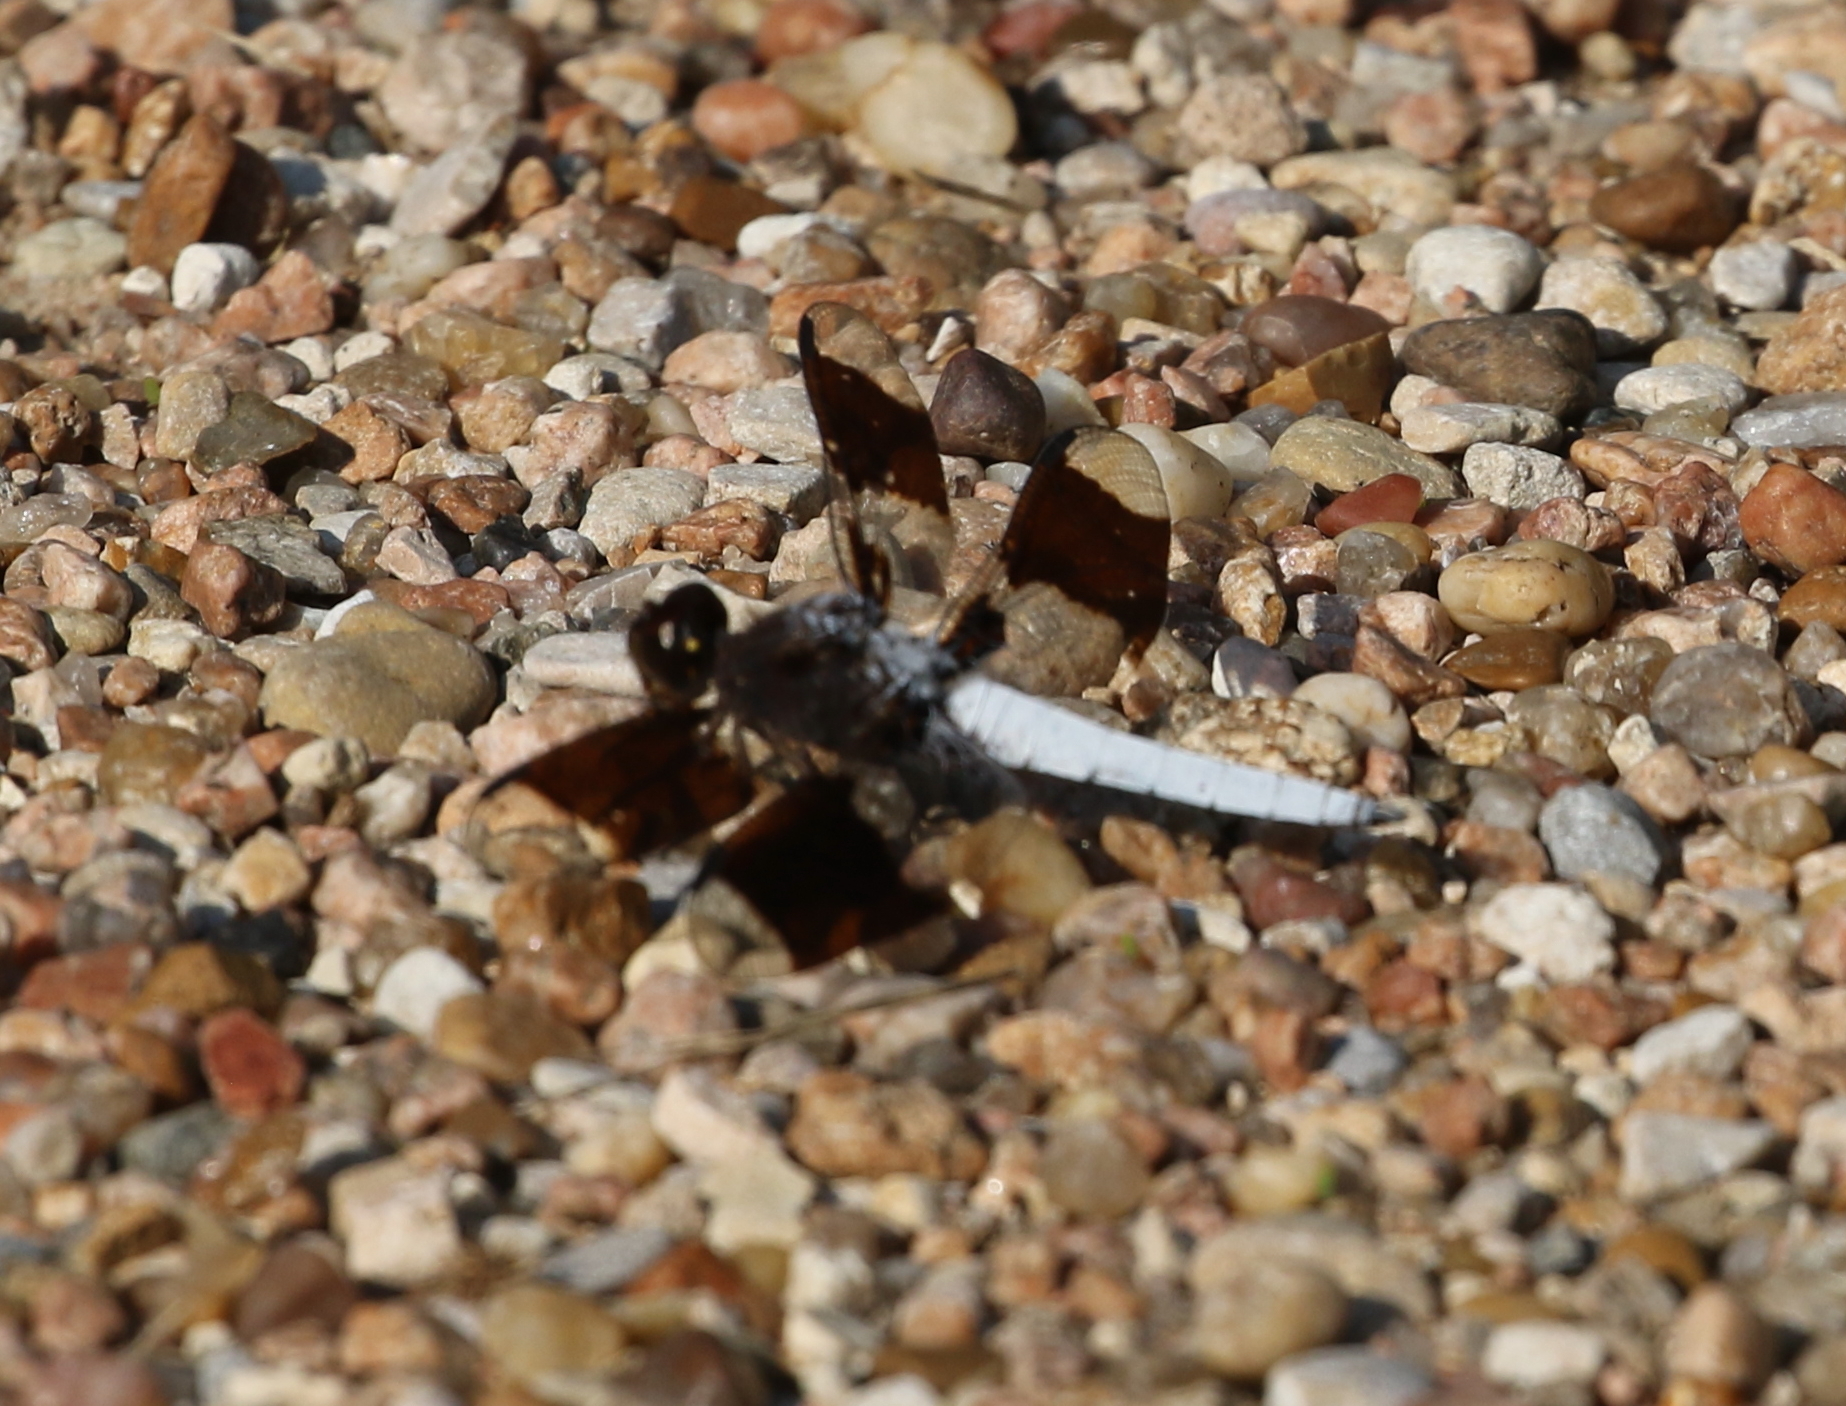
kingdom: Animalia
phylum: Arthropoda
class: Insecta
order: Odonata
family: Libellulidae
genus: Plathemis
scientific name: Plathemis lydia
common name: Common whitetail
